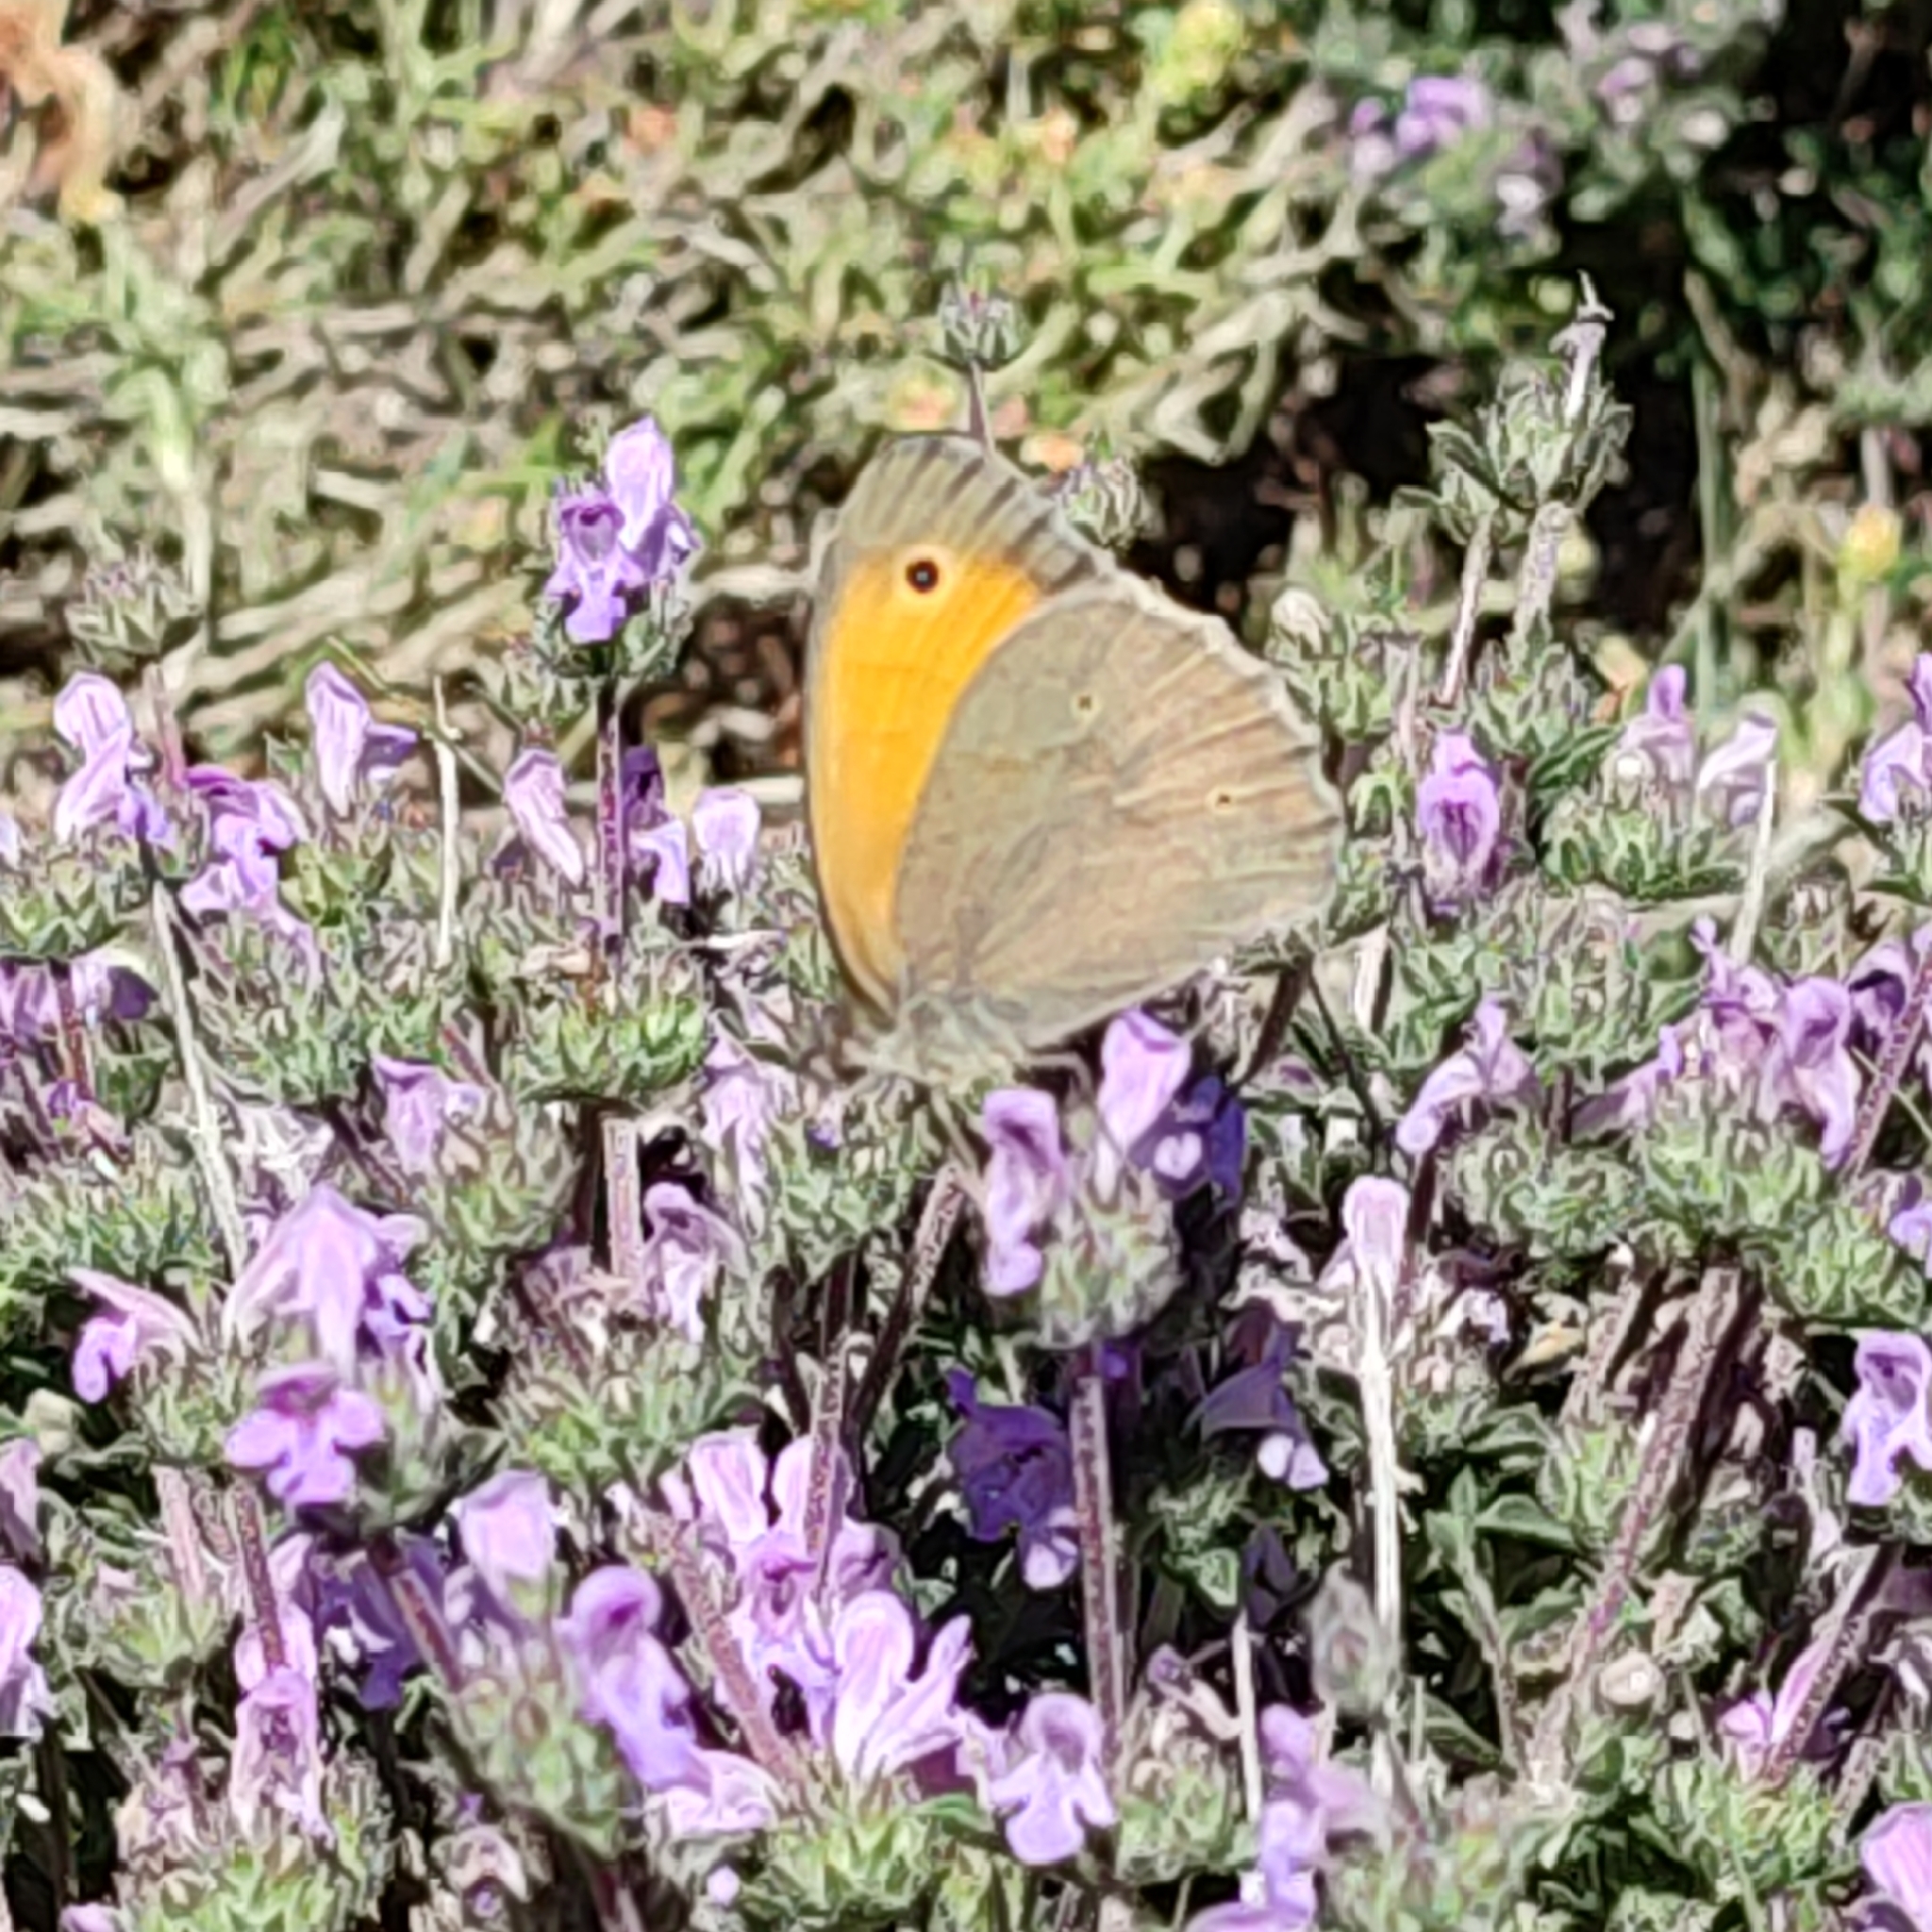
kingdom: Animalia
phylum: Arthropoda
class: Insecta
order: Lepidoptera
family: Nymphalidae
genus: Maniola
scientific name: Maniola jurtina
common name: Meadow brown
